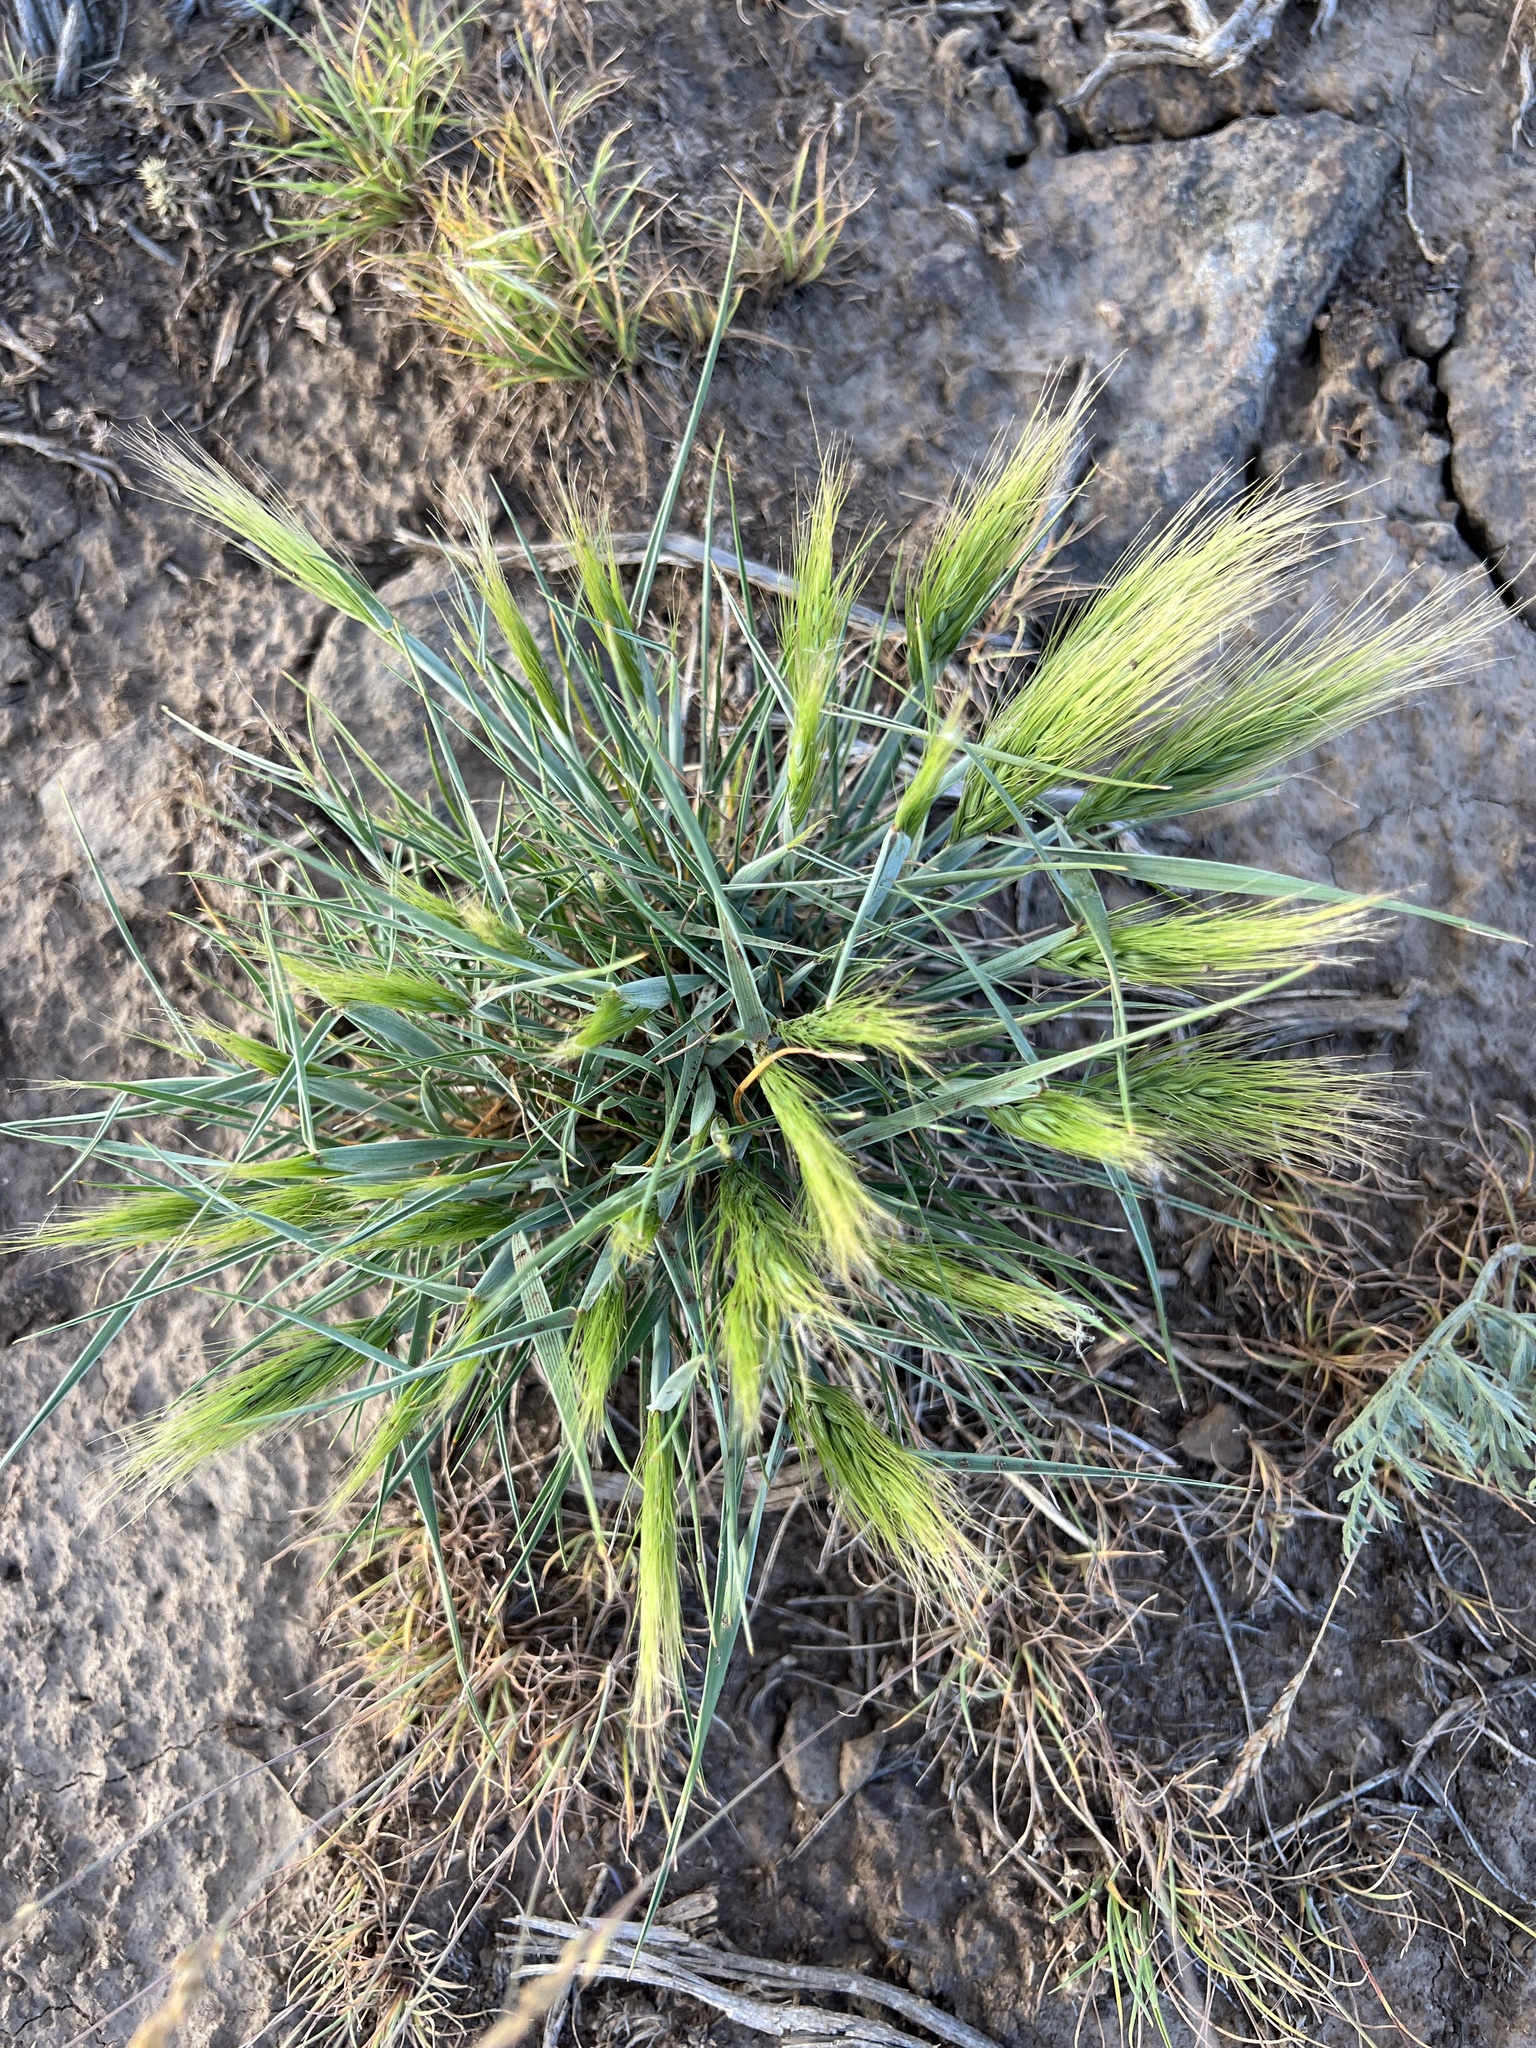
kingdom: Plantae
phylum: Tracheophyta
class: Liliopsida
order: Poales
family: Poaceae
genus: Elymus
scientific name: Elymus elymoides
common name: Bottlebrush squirreltail
